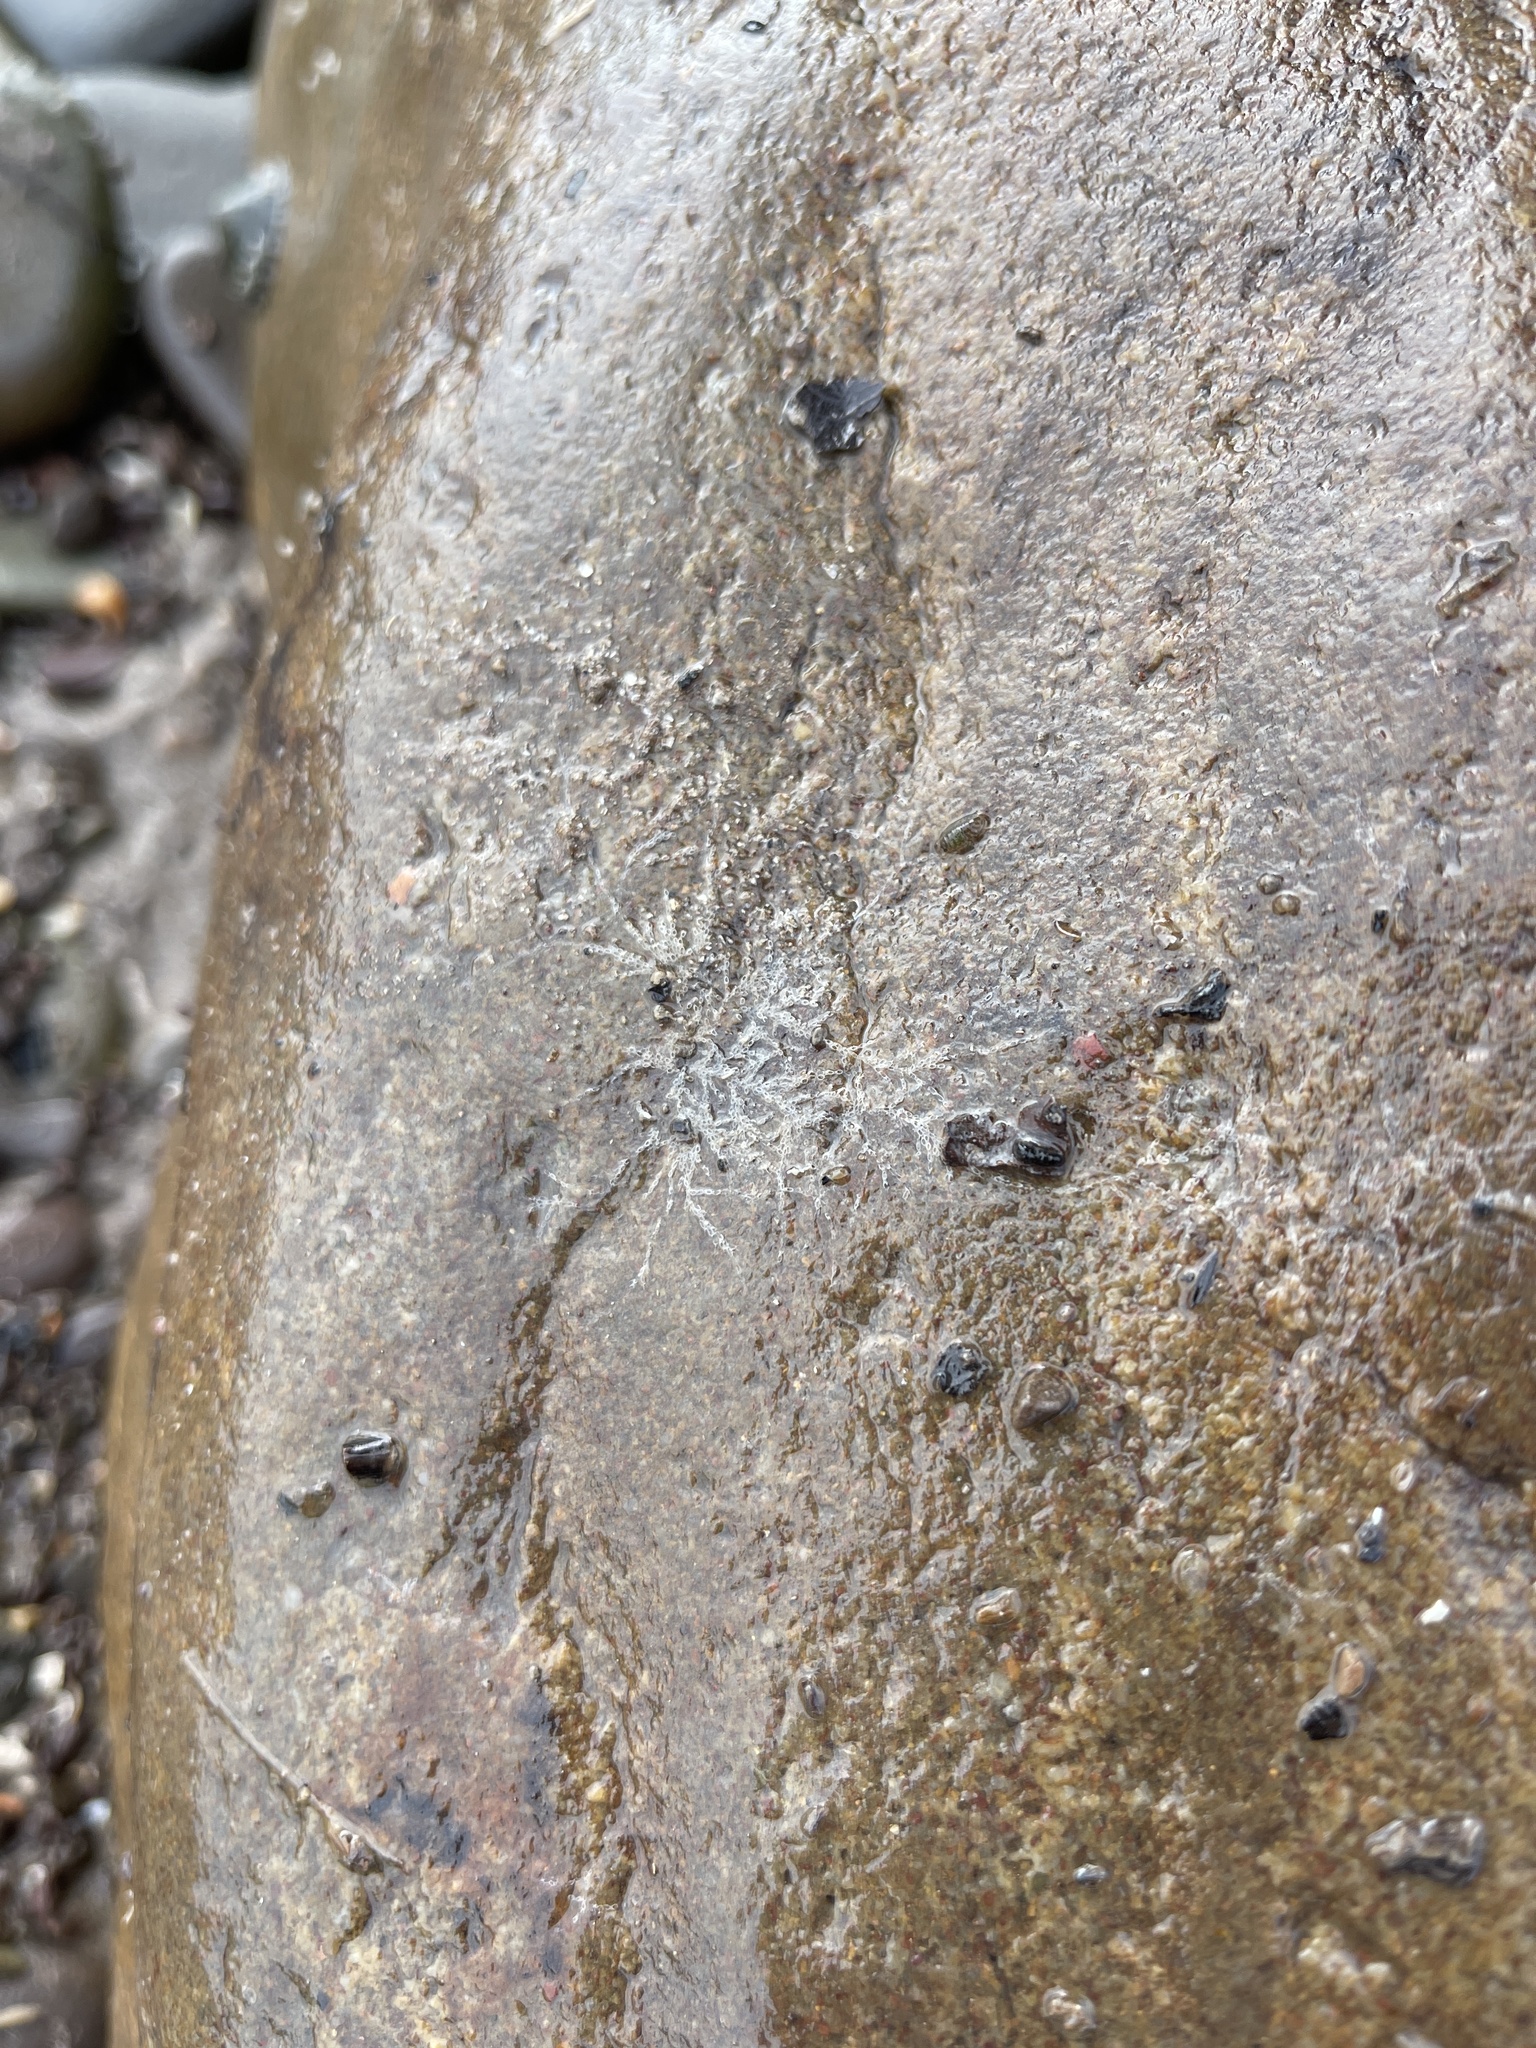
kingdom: Animalia
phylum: Bryozoa
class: Gymnolaemata
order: Cheilostomatida
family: Electridae
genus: Electra
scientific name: Electra pilosa
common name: Hairy sea-mat
